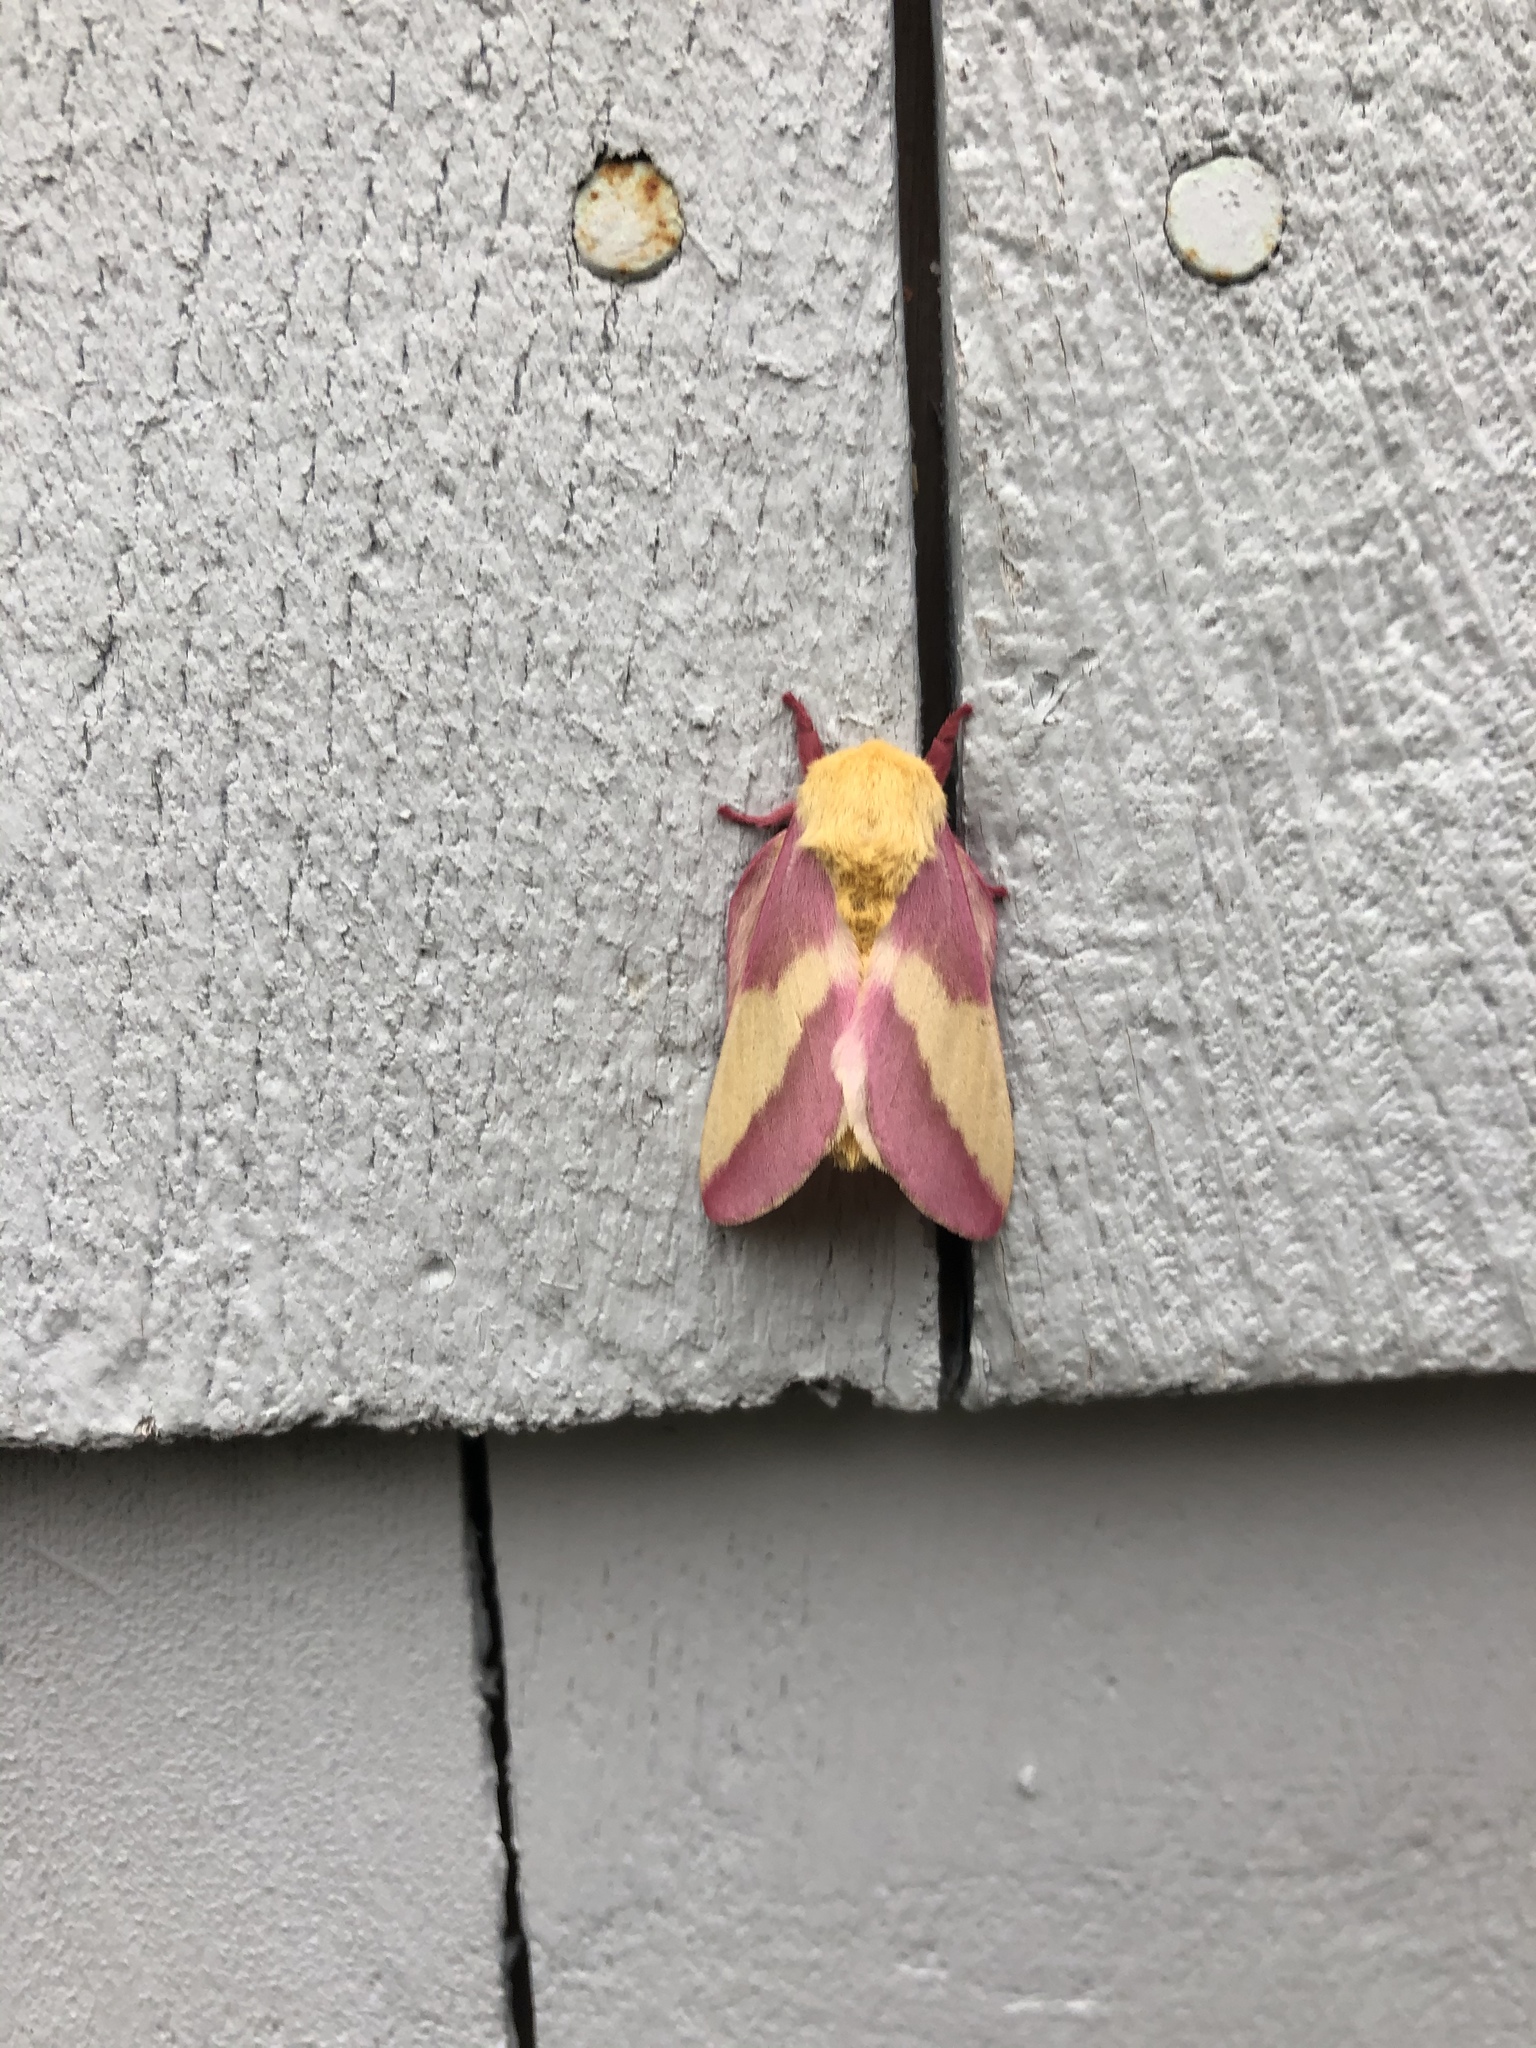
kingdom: Animalia
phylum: Arthropoda
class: Insecta
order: Lepidoptera
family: Saturniidae
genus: Dryocampa
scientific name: Dryocampa rubicunda
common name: Rosy maple moth
